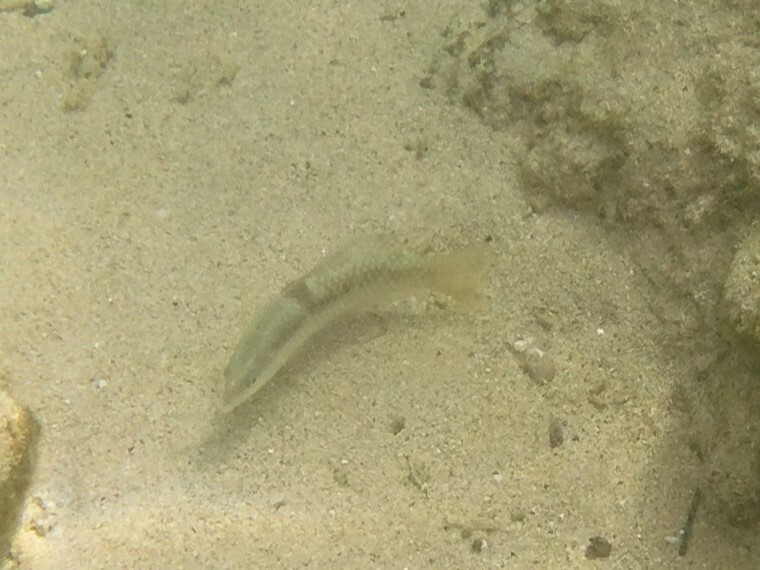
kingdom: Animalia
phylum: Chordata
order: Perciformes
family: Labridae
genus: Halichoeres
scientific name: Halichoeres nicholsi
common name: Spinster wrasse
